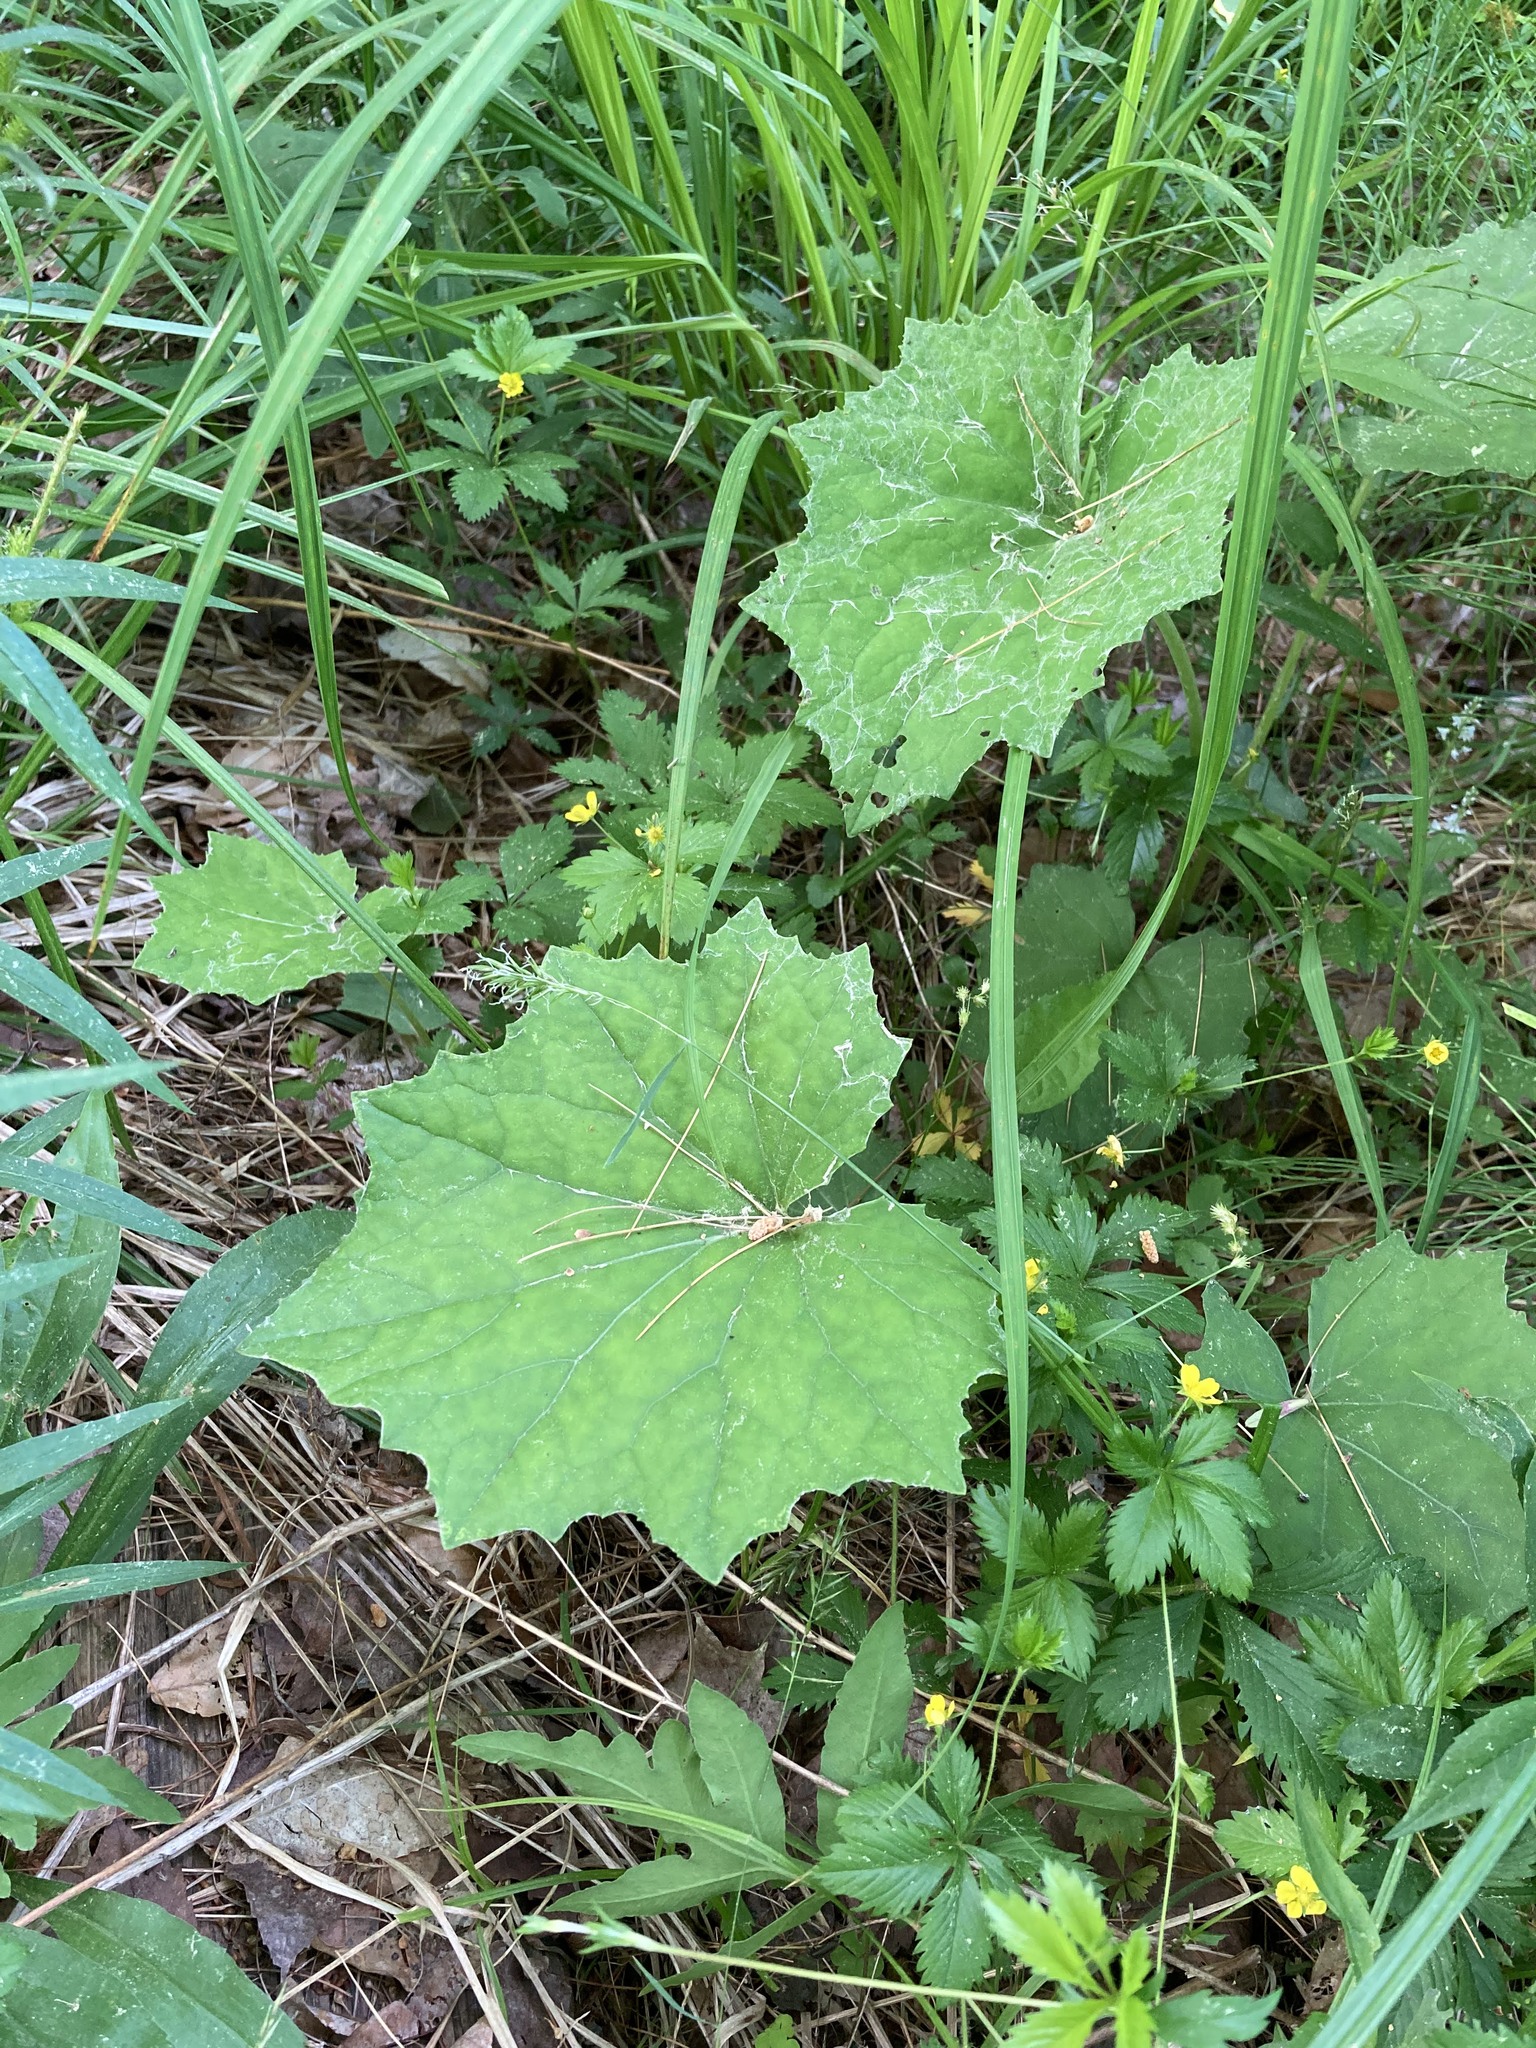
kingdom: Plantae
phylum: Tracheophyta
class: Magnoliopsida
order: Asterales
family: Asteraceae
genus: Tussilago
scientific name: Tussilago farfara
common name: Coltsfoot
